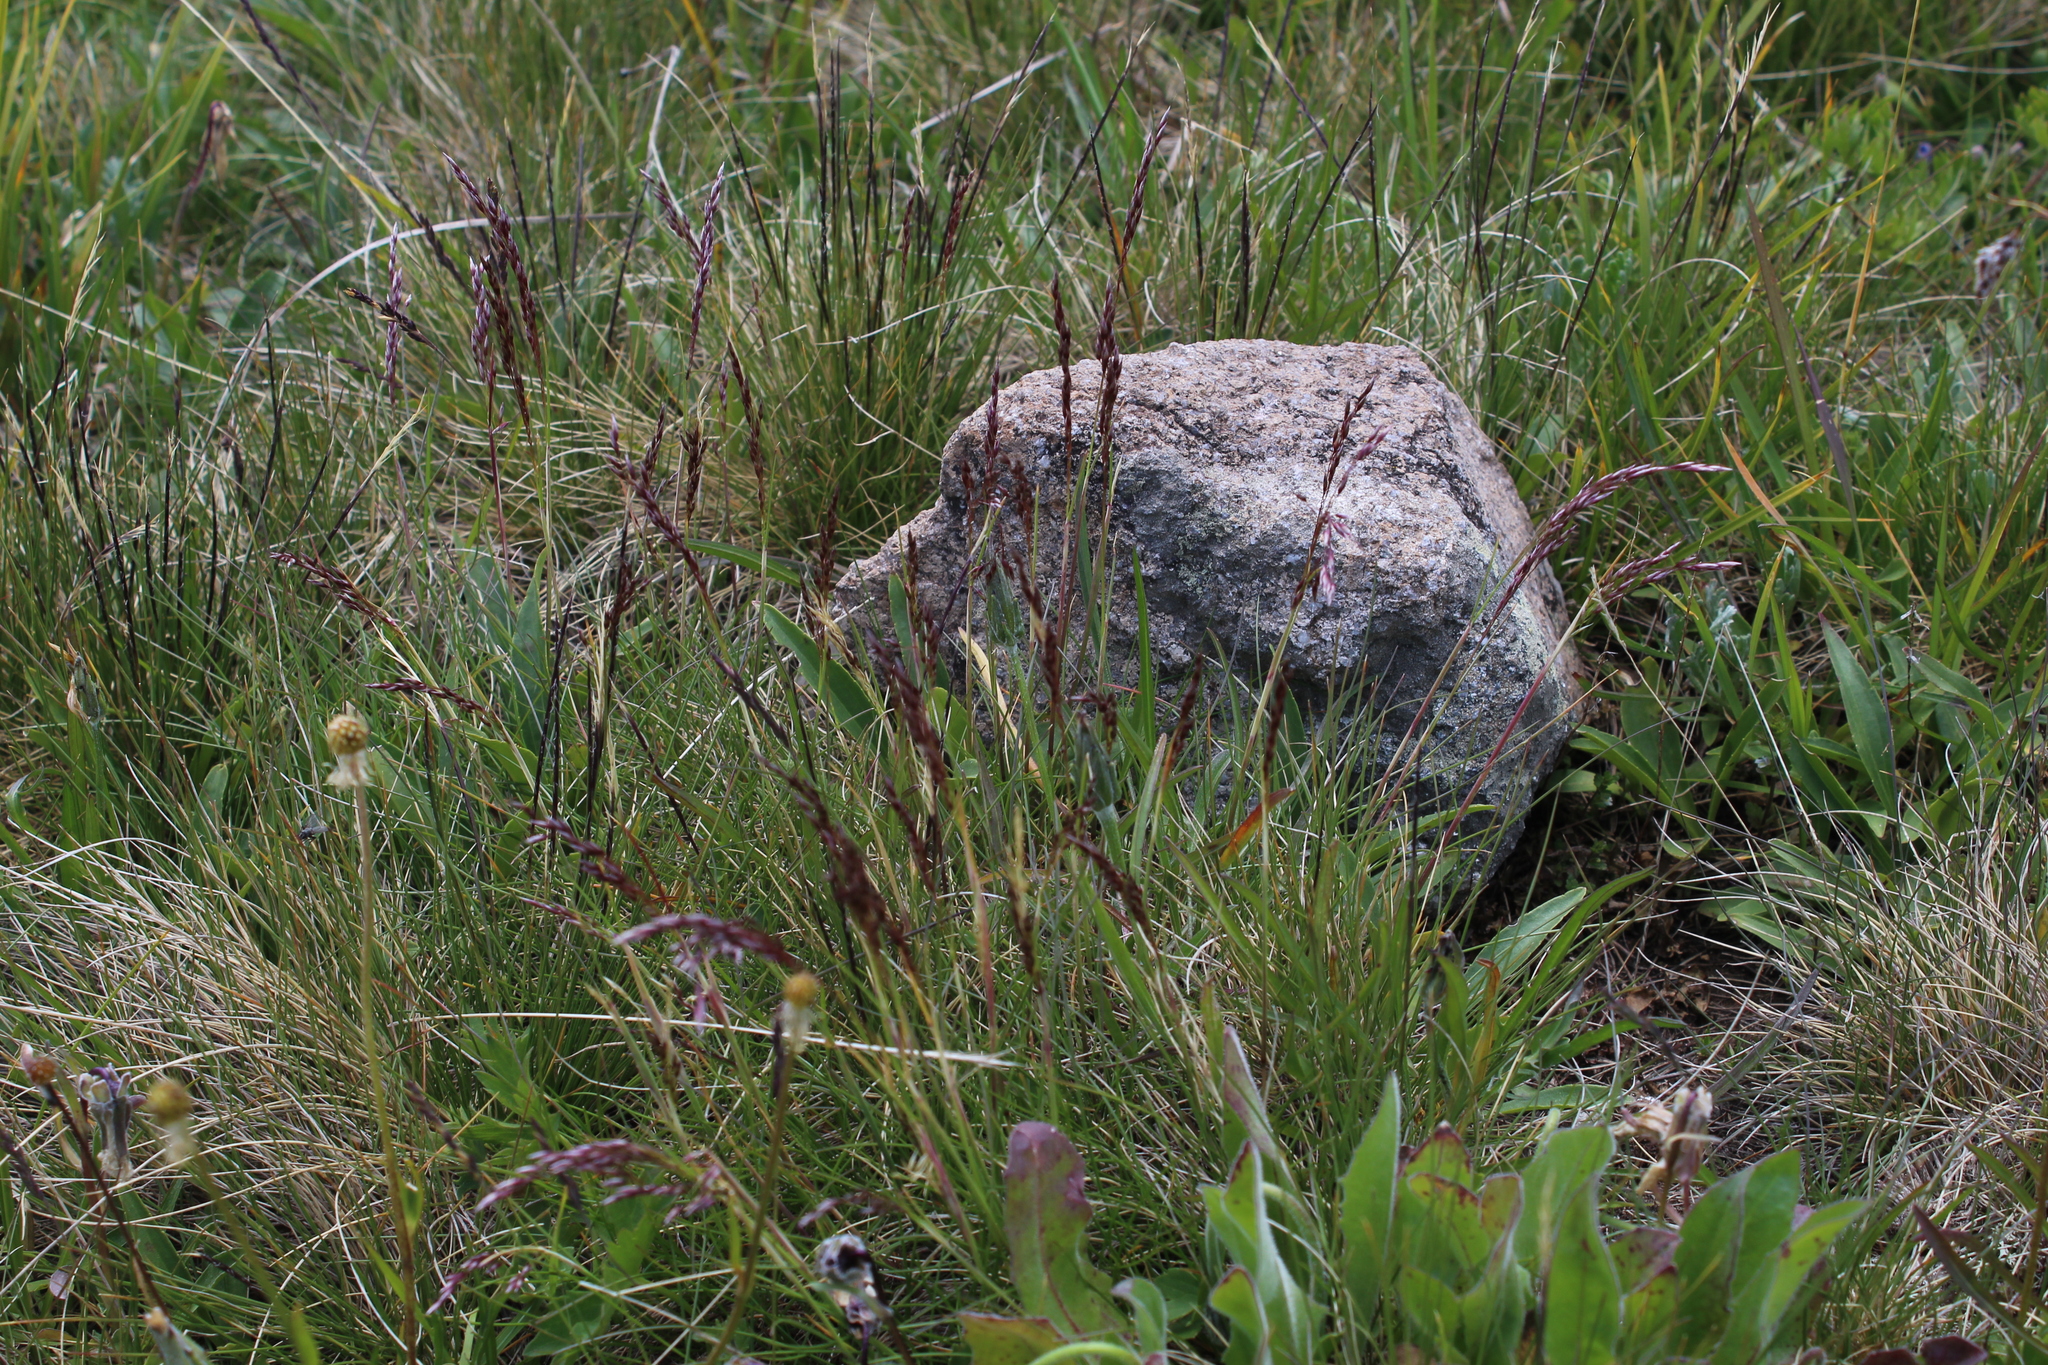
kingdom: Plantae
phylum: Tracheophyta
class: Liliopsida
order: Poales
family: Poaceae
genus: Avenella
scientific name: Avenella flexuosa
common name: Wavy hairgrass
